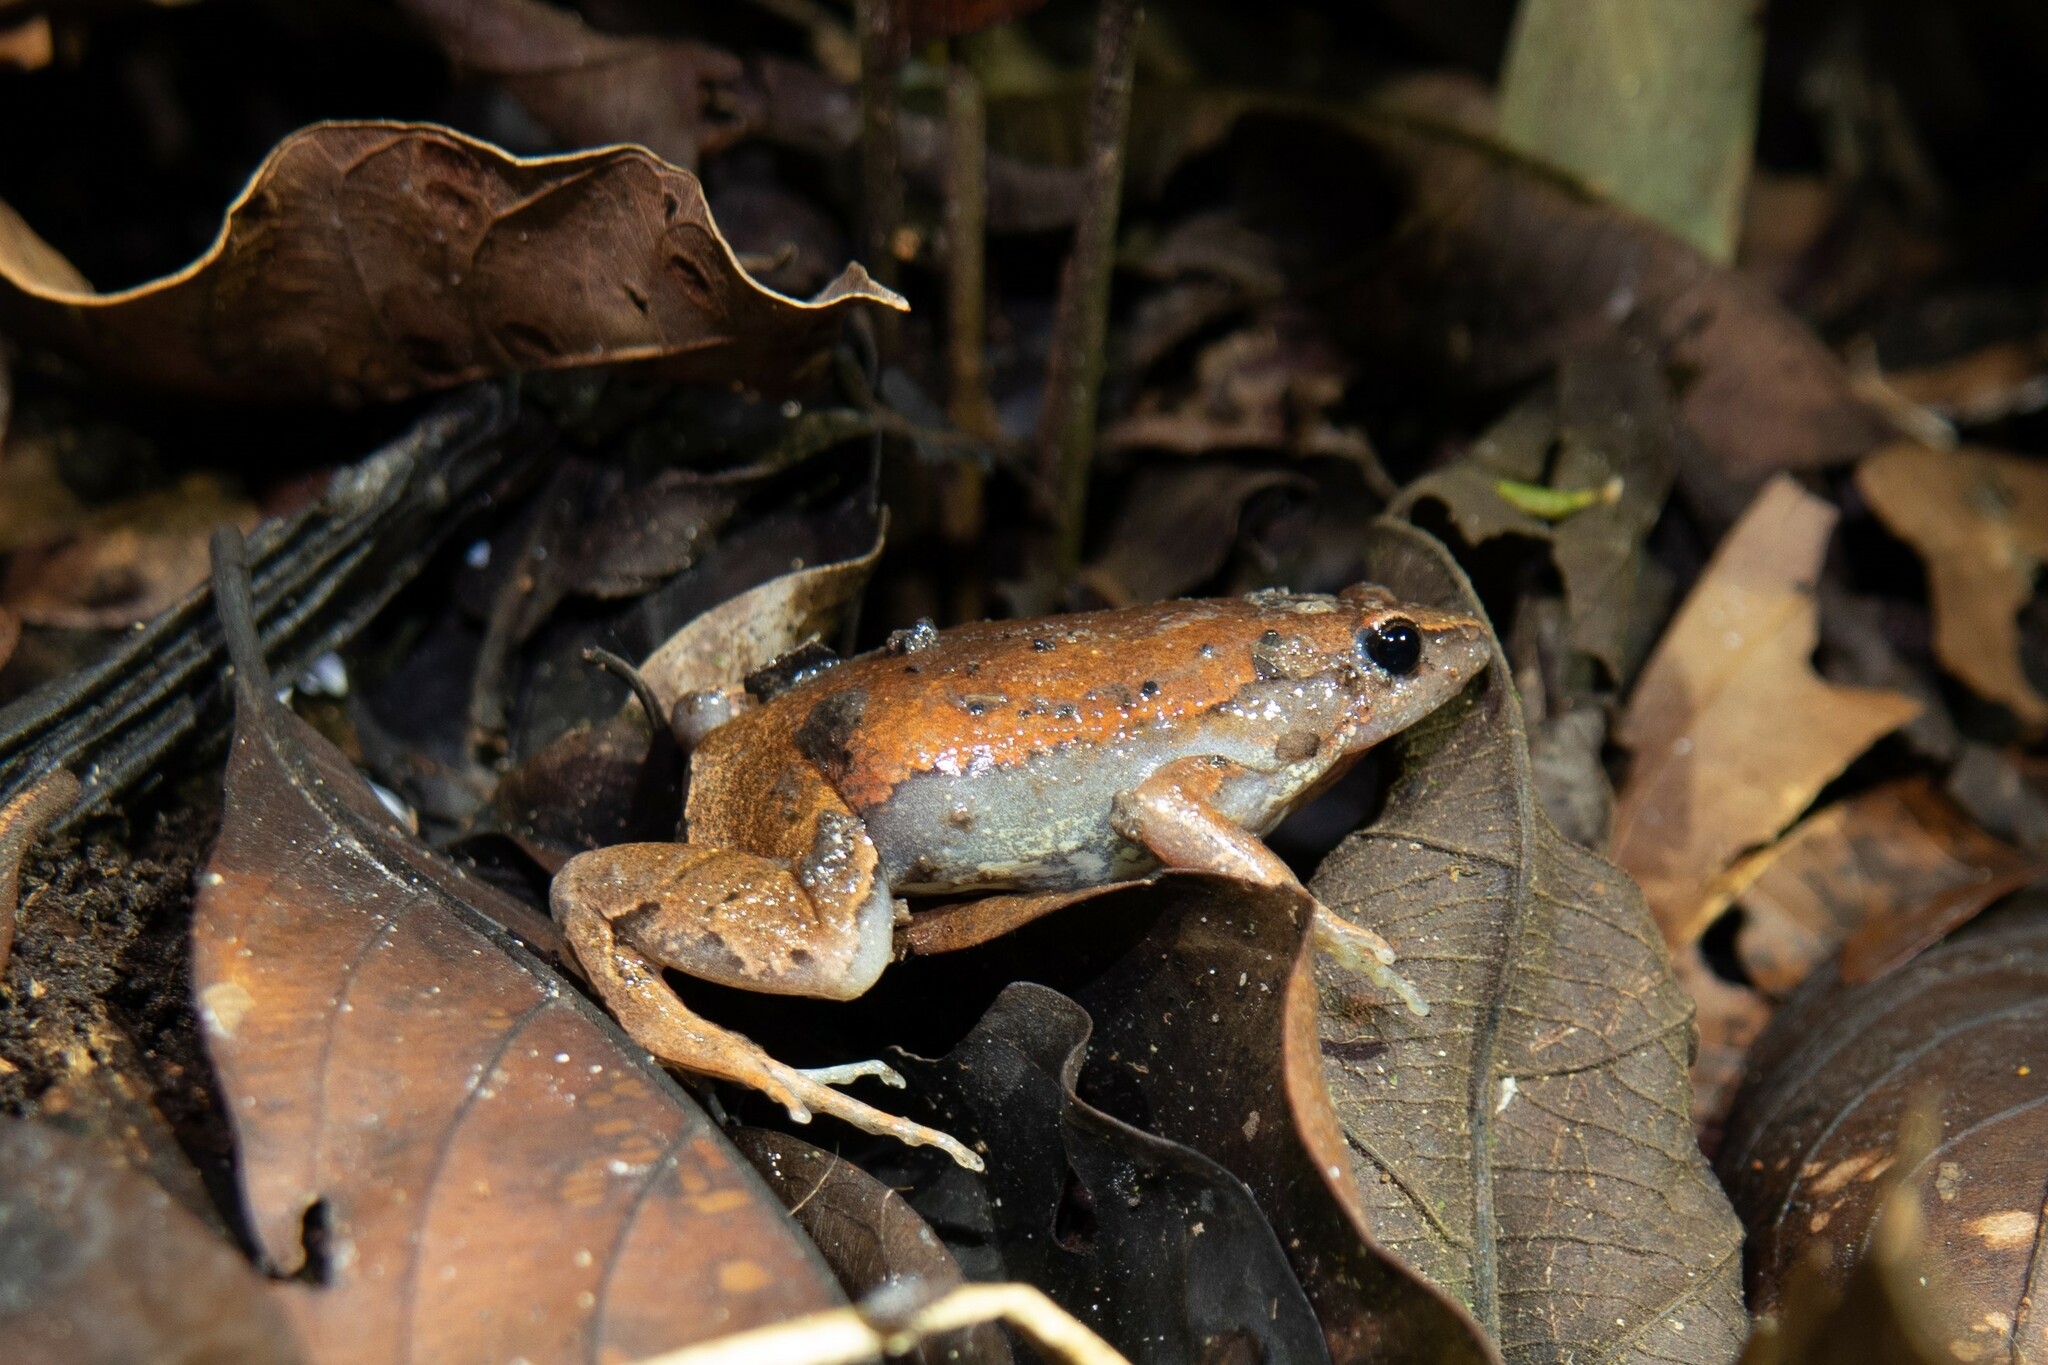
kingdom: Animalia
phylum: Chordata
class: Amphibia
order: Anura
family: Microhylidae
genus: Hamptophryne
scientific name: Hamptophryne boliviana
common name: Bolivian bleating frog
